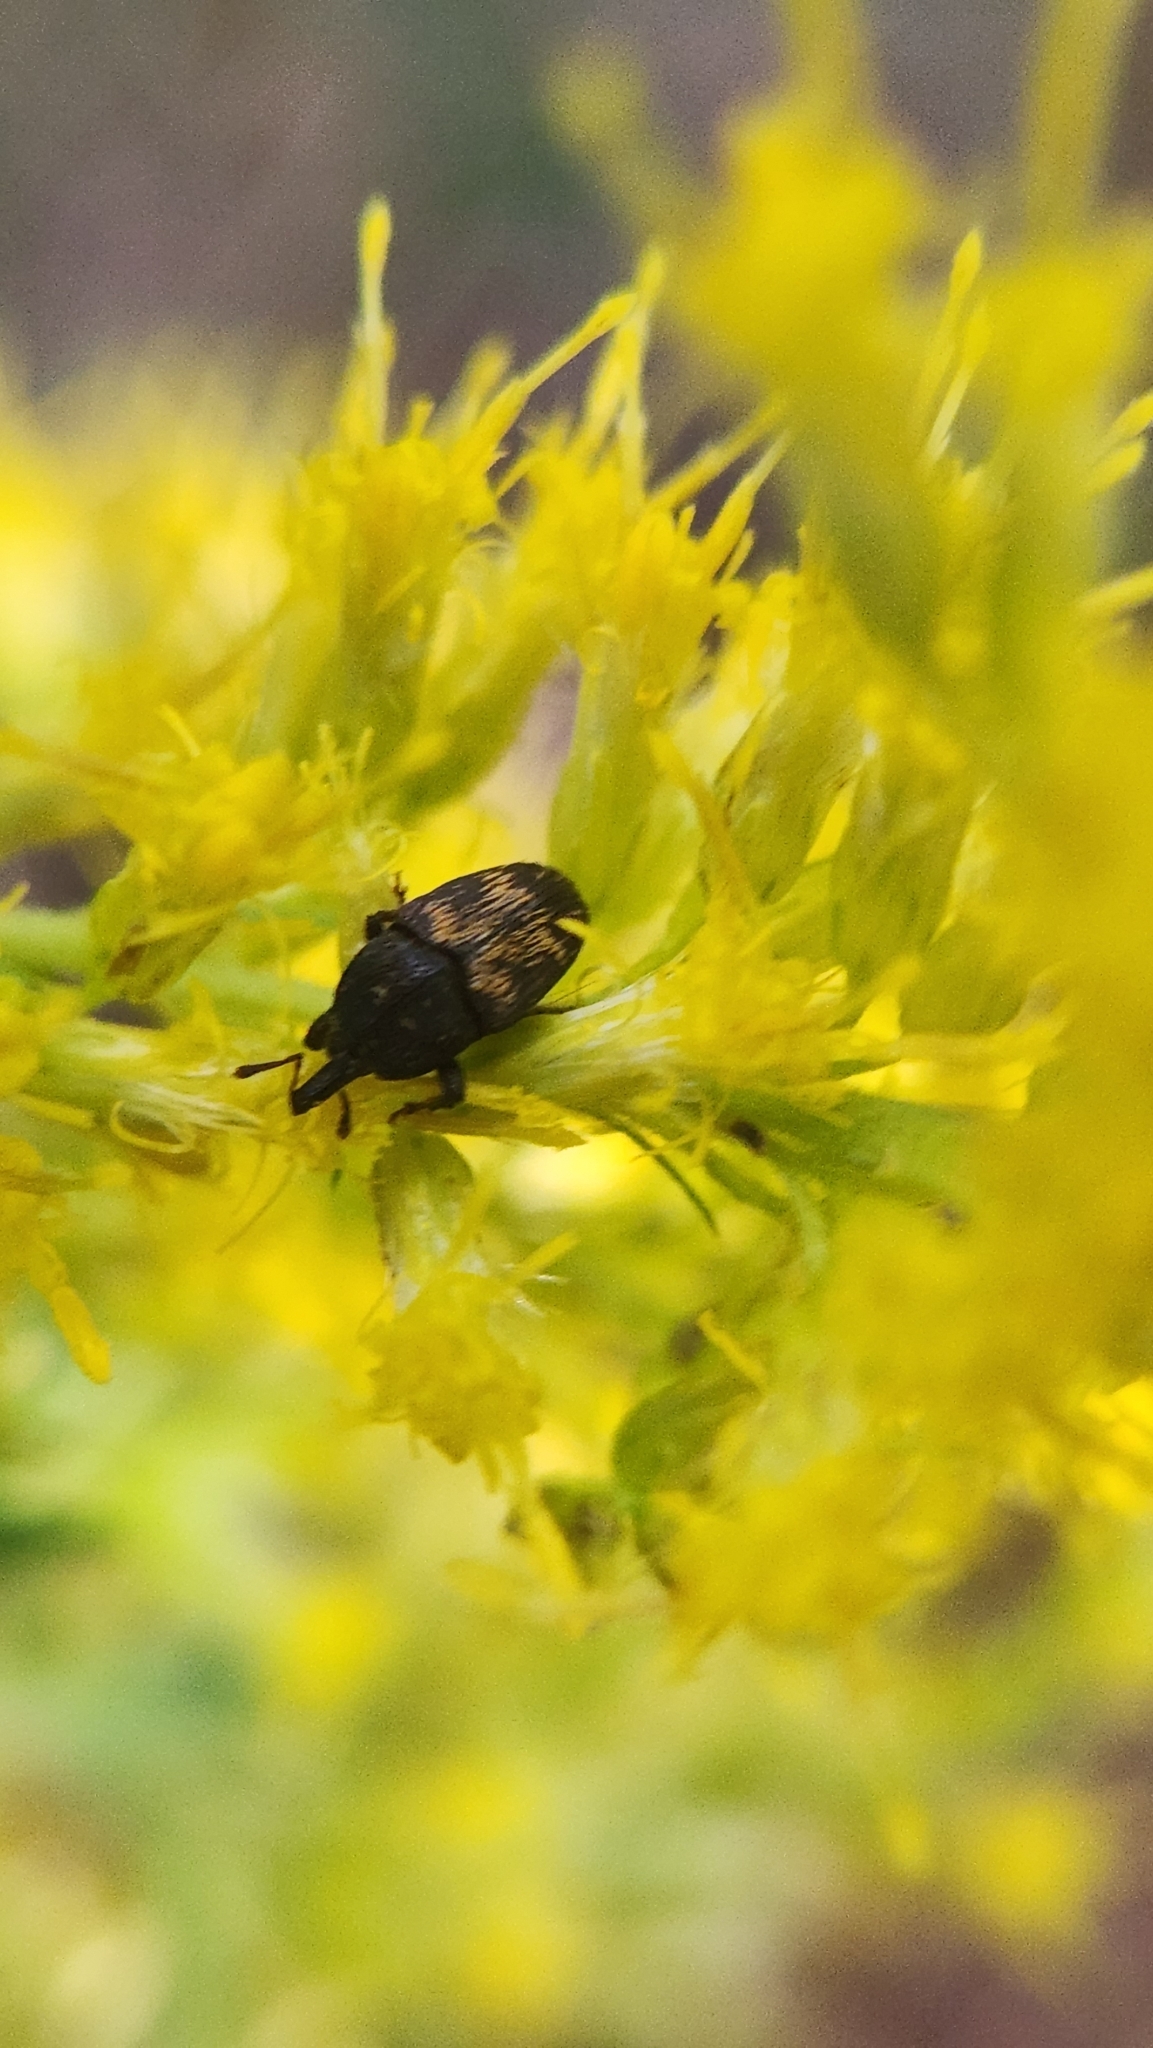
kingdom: Animalia
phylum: Arthropoda
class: Insecta
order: Coleoptera
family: Curculionidae
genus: Glyptobaris
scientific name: Glyptobaris lecontei
